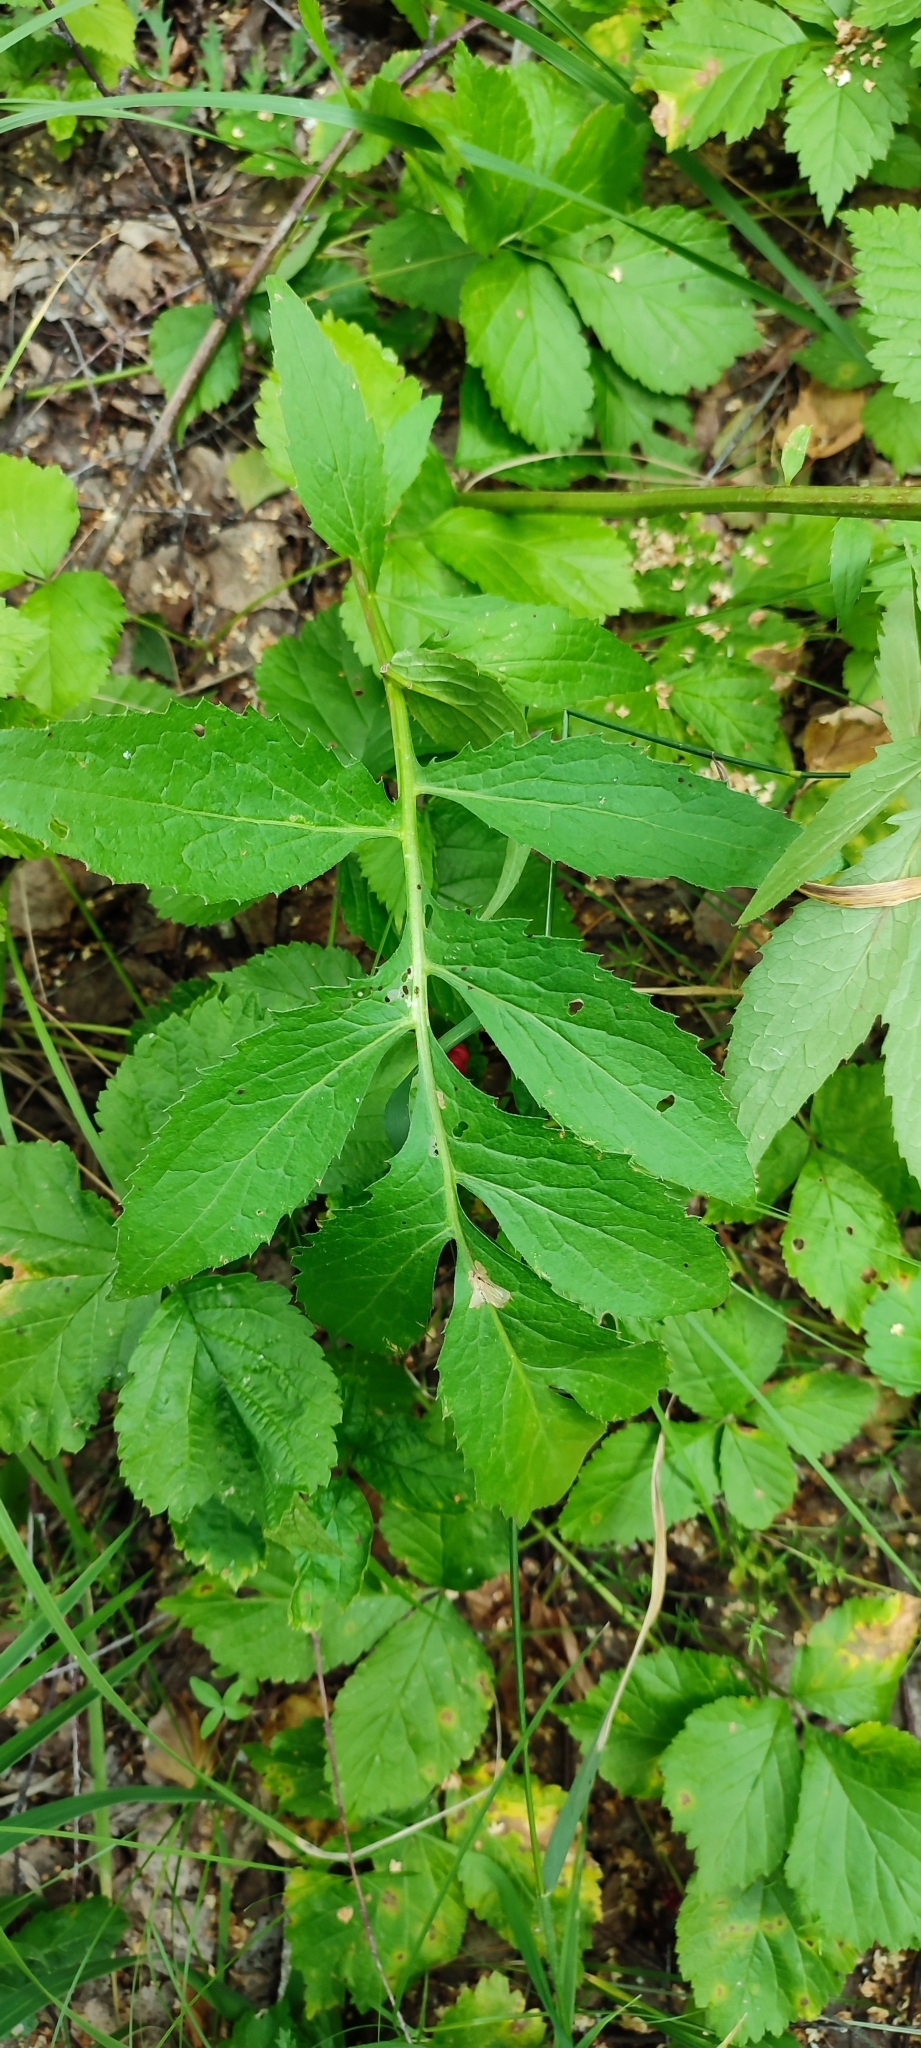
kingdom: Plantae
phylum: Tracheophyta
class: Magnoliopsida
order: Asterales
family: Asteraceae
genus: Serratula
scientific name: Serratula coronata
